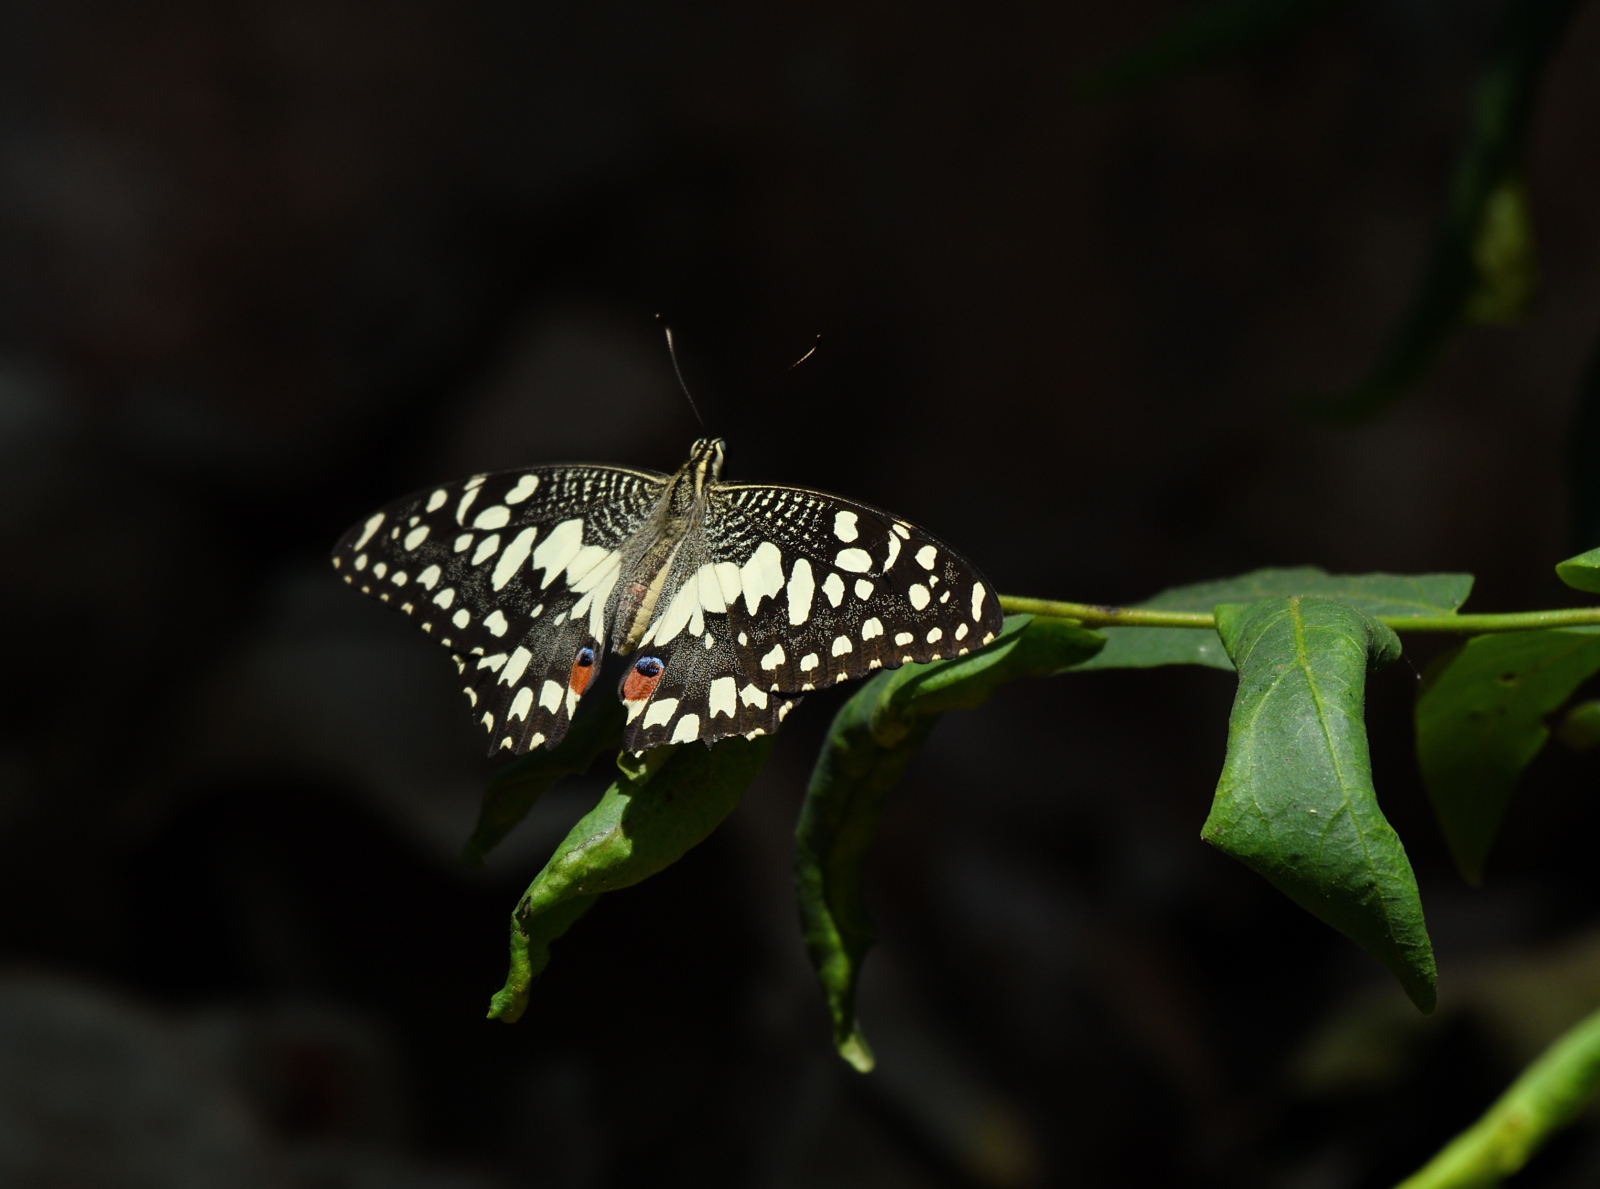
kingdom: Animalia
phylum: Arthropoda
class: Insecta
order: Lepidoptera
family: Papilionidae
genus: Papilio
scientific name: Papilio demoleus
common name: Lime butterfly
